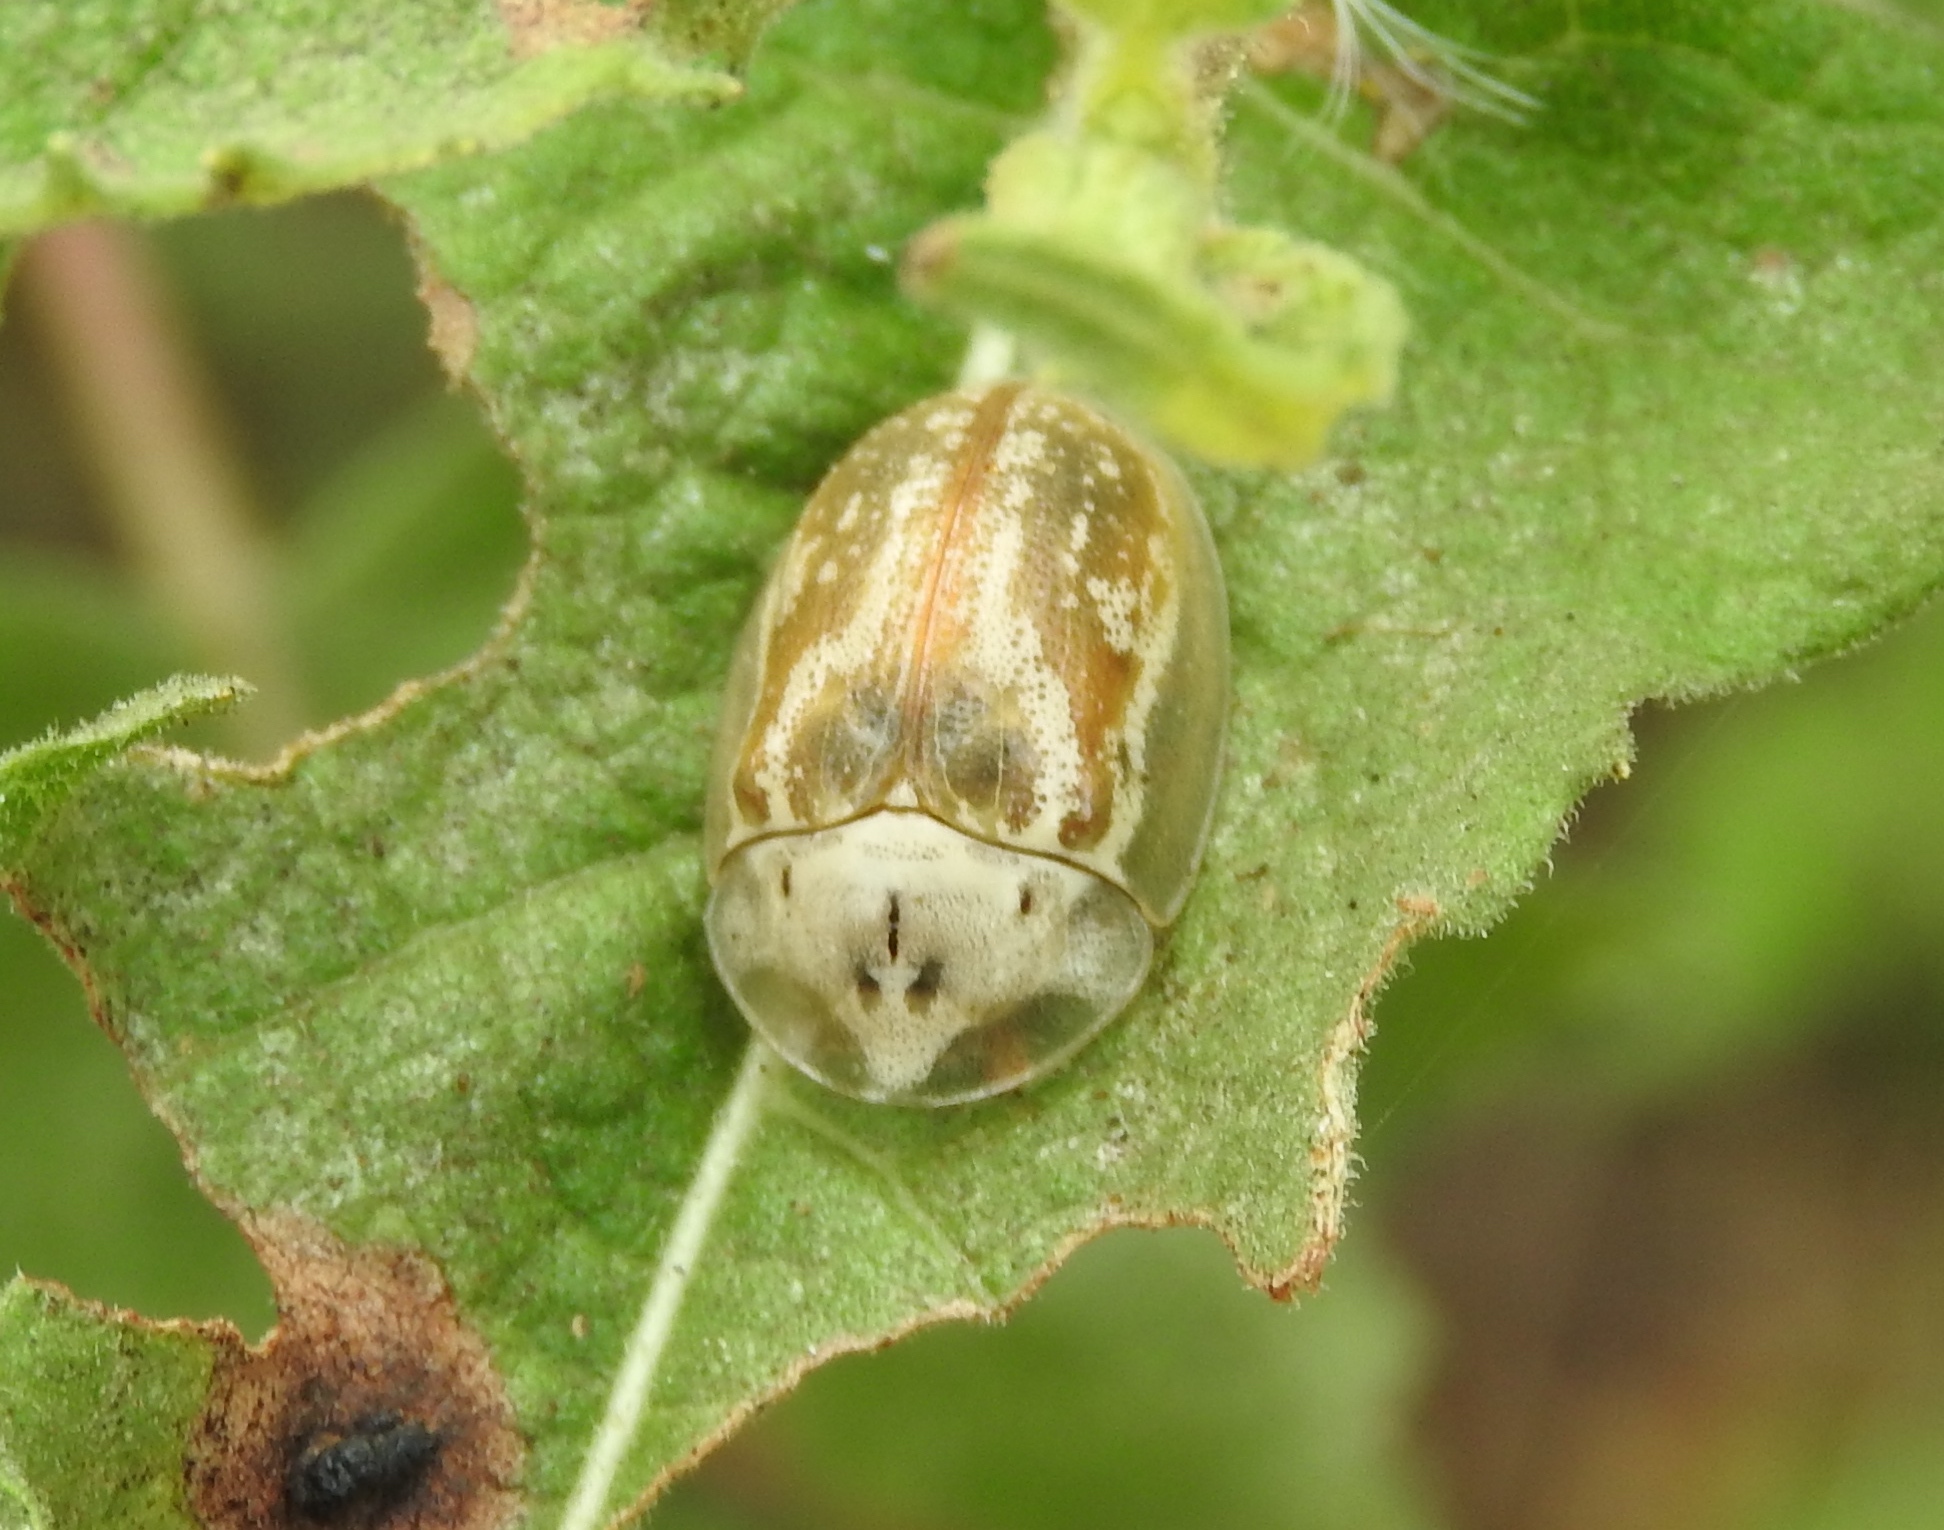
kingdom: Animalia
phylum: Arthropoda
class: Insecta
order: Coleoptera
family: Chrysomelidae
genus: Physonota
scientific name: Physonota arizonae
